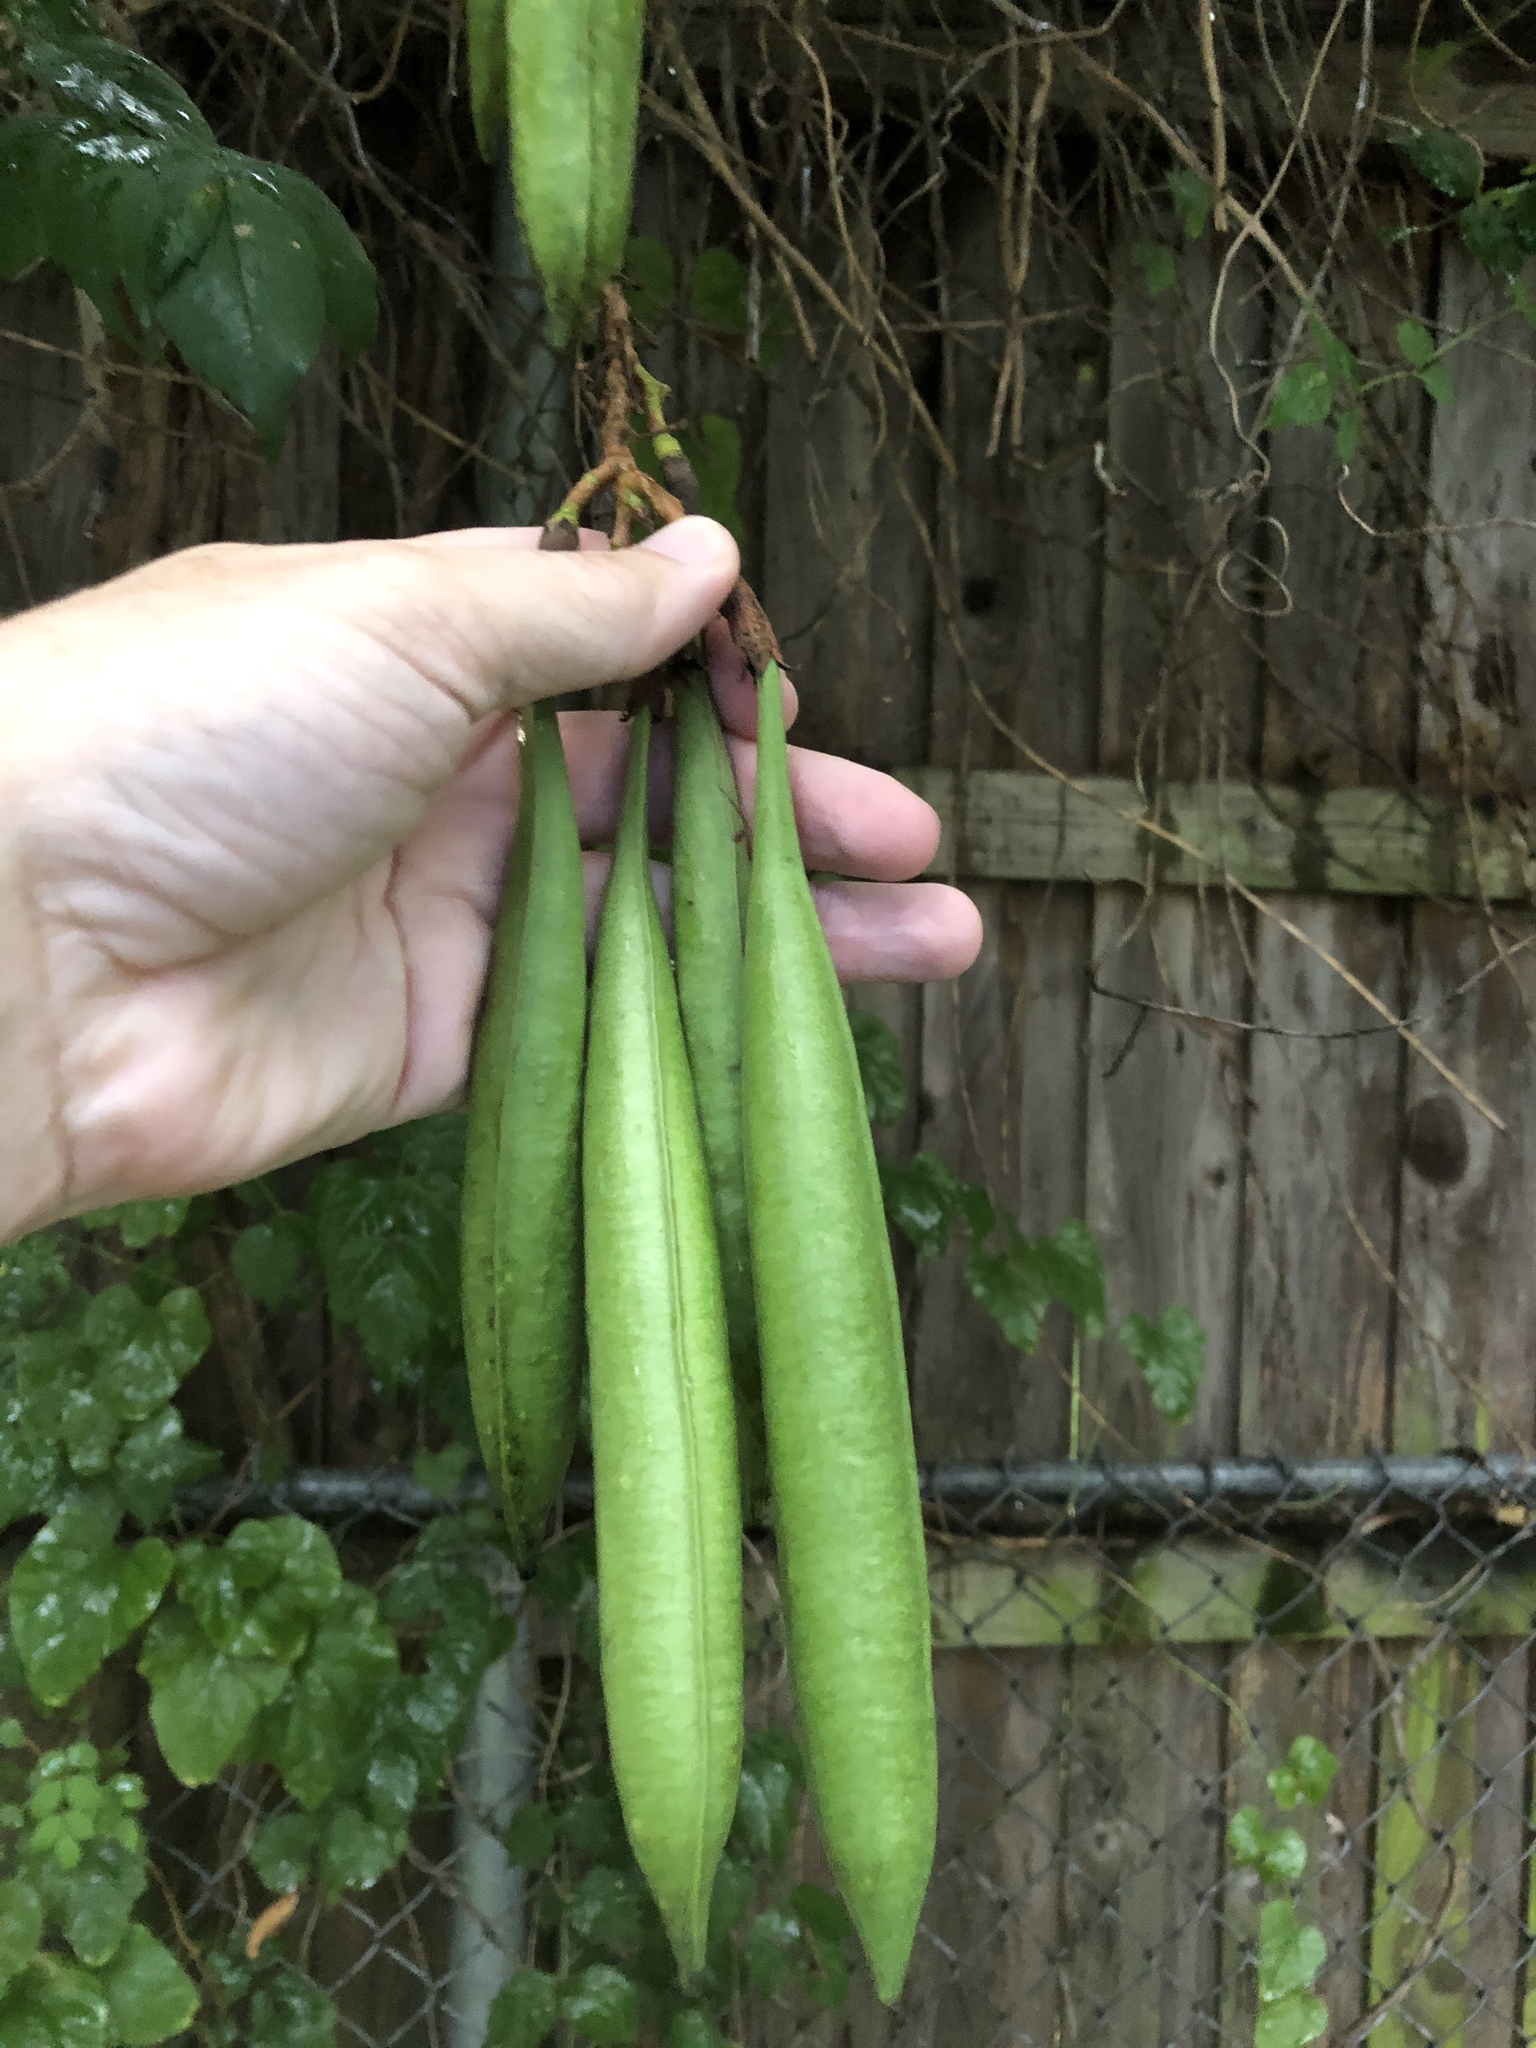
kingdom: Plantae
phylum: Tracheophyta
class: Magnoliopsida
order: Lamiales
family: Bignoniaceae
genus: Campsis
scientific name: Campsis radicans
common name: Trumpet-creeper
